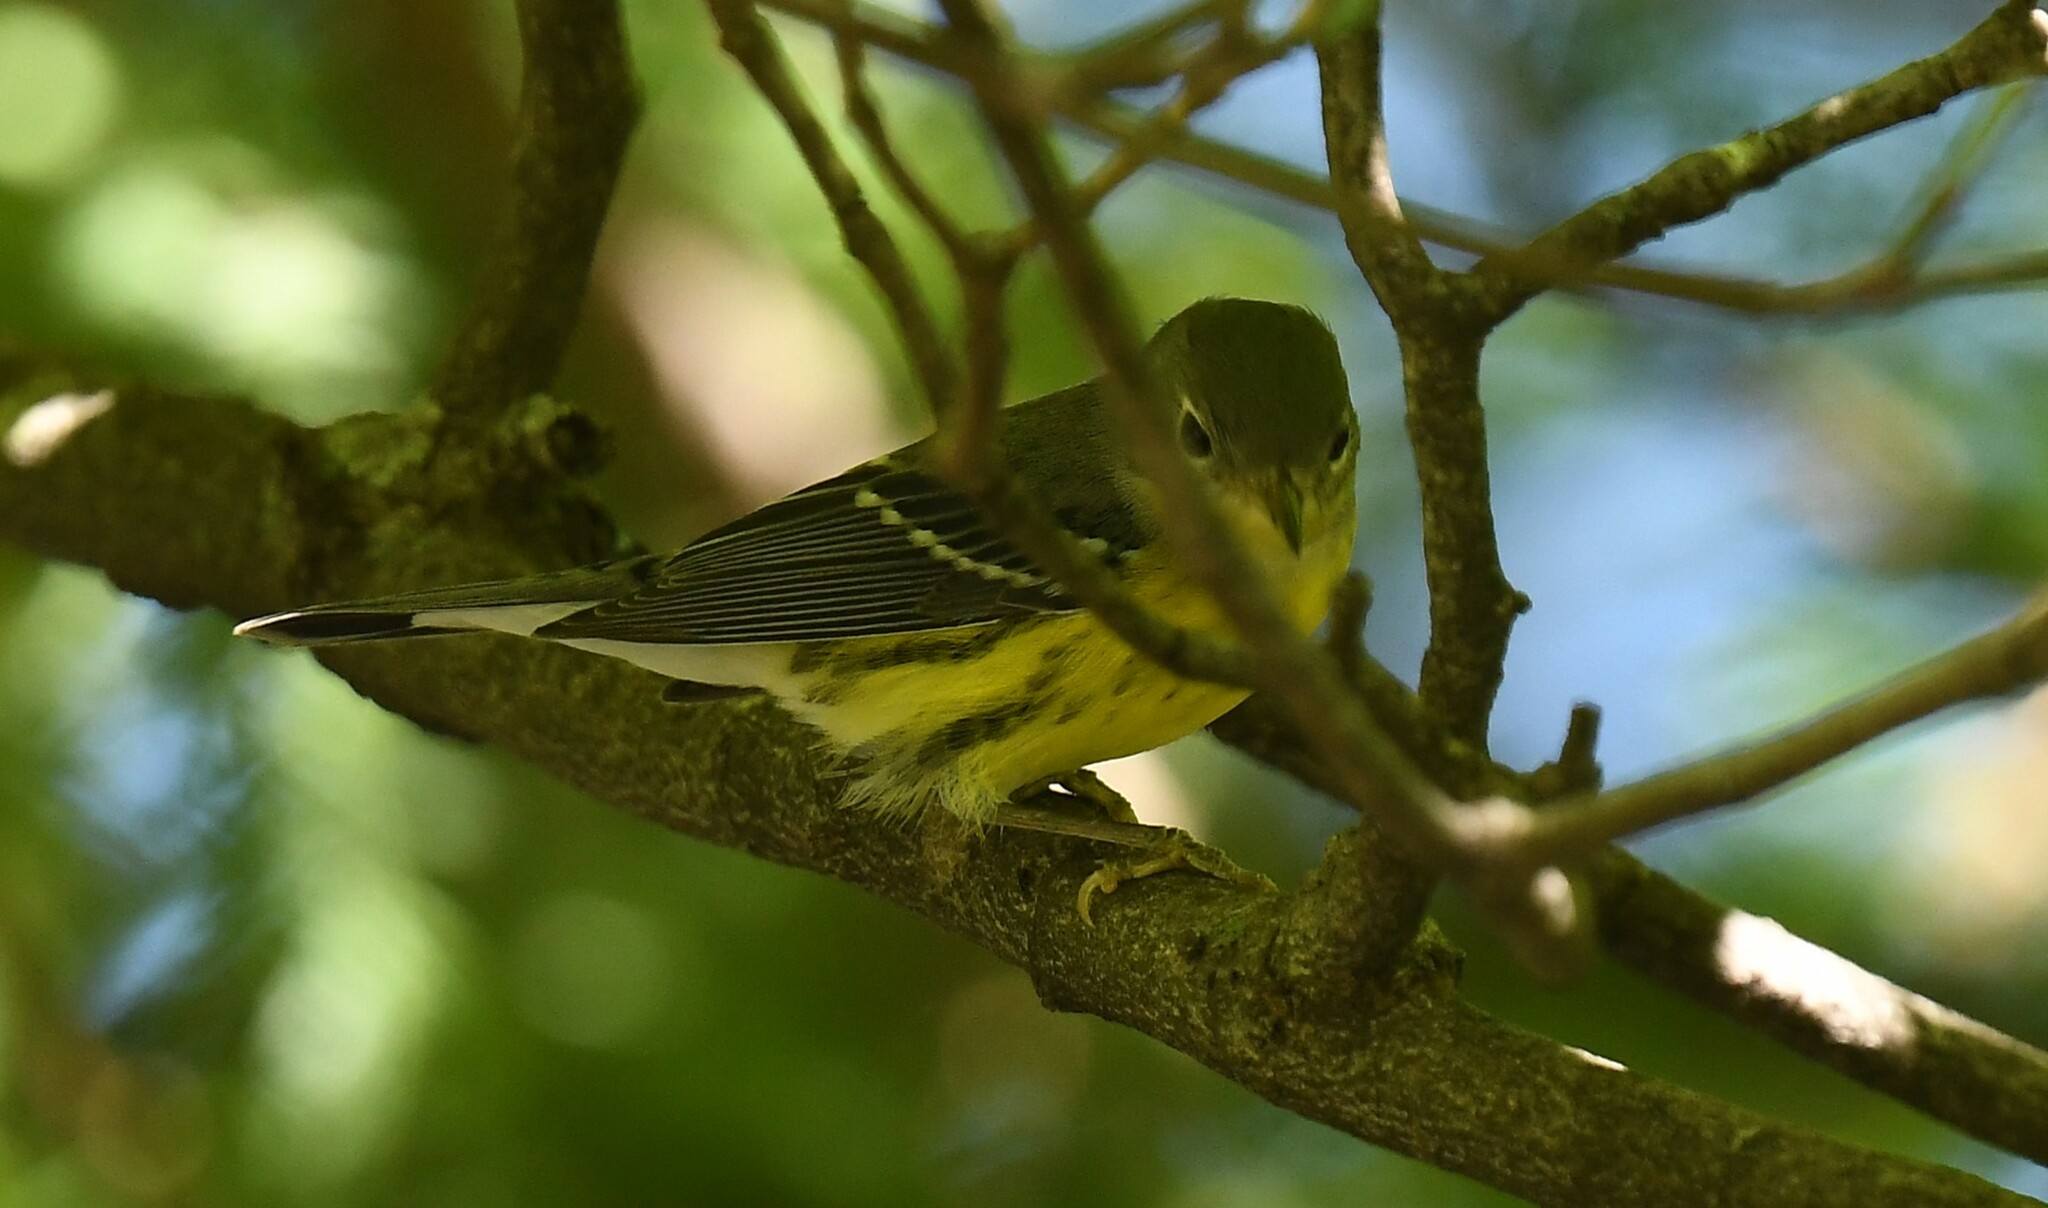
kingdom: Animalia
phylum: Chordata
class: Aves
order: Passeriformes
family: Parulidae
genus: Setophaga
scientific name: Setophaga magnolia
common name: Magnolia warbler
